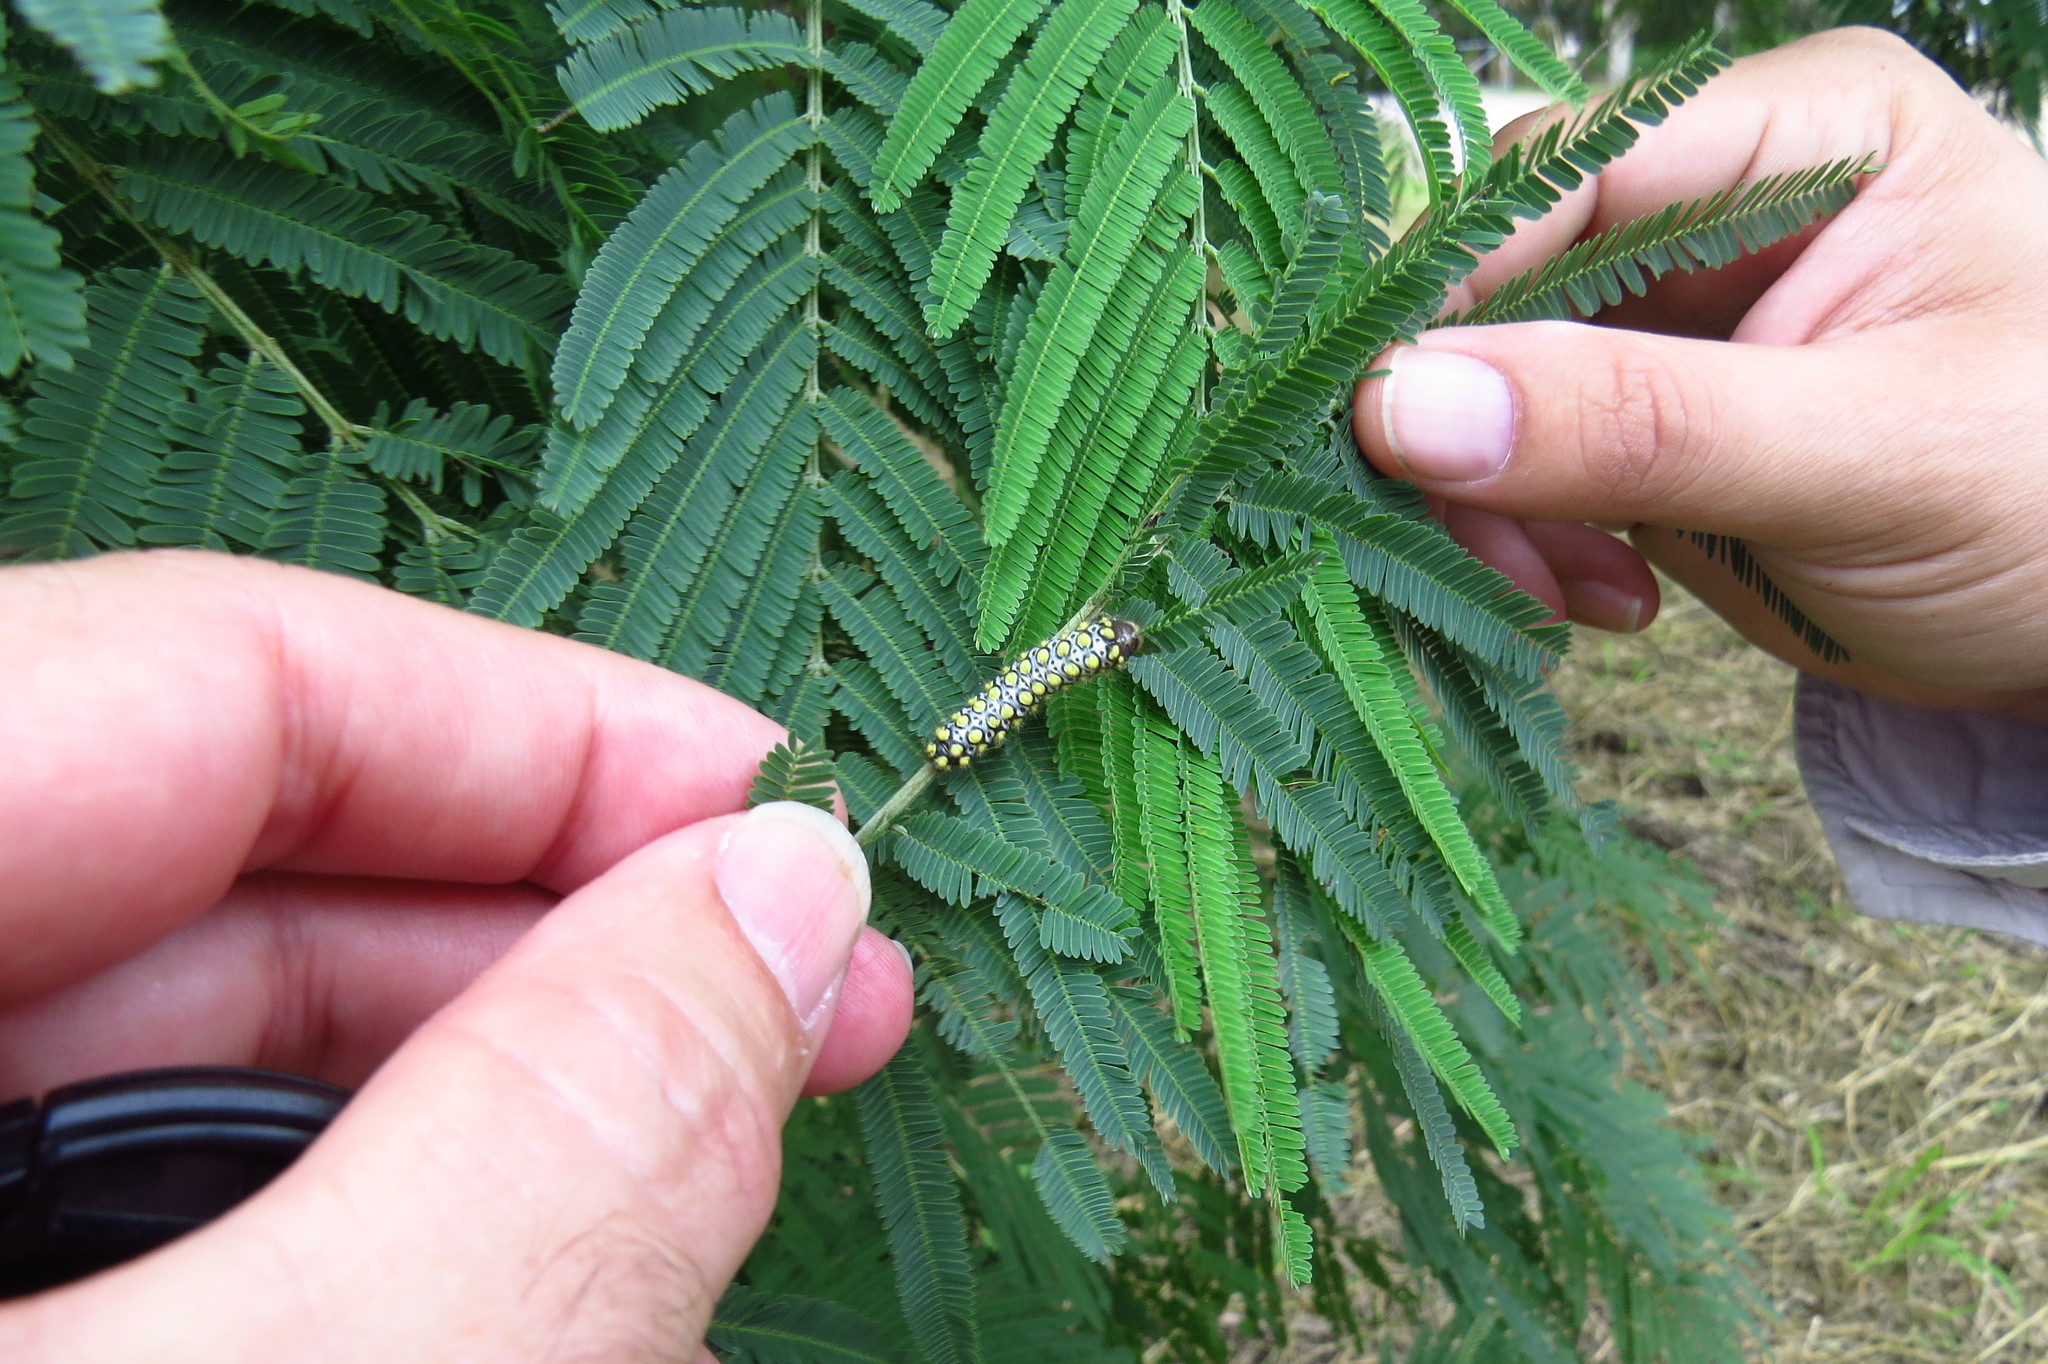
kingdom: Animalia
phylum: Arthropoda
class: Insecta
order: Lepidoptera
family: Megalopygidae
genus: Norape
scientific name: Norape virgo
